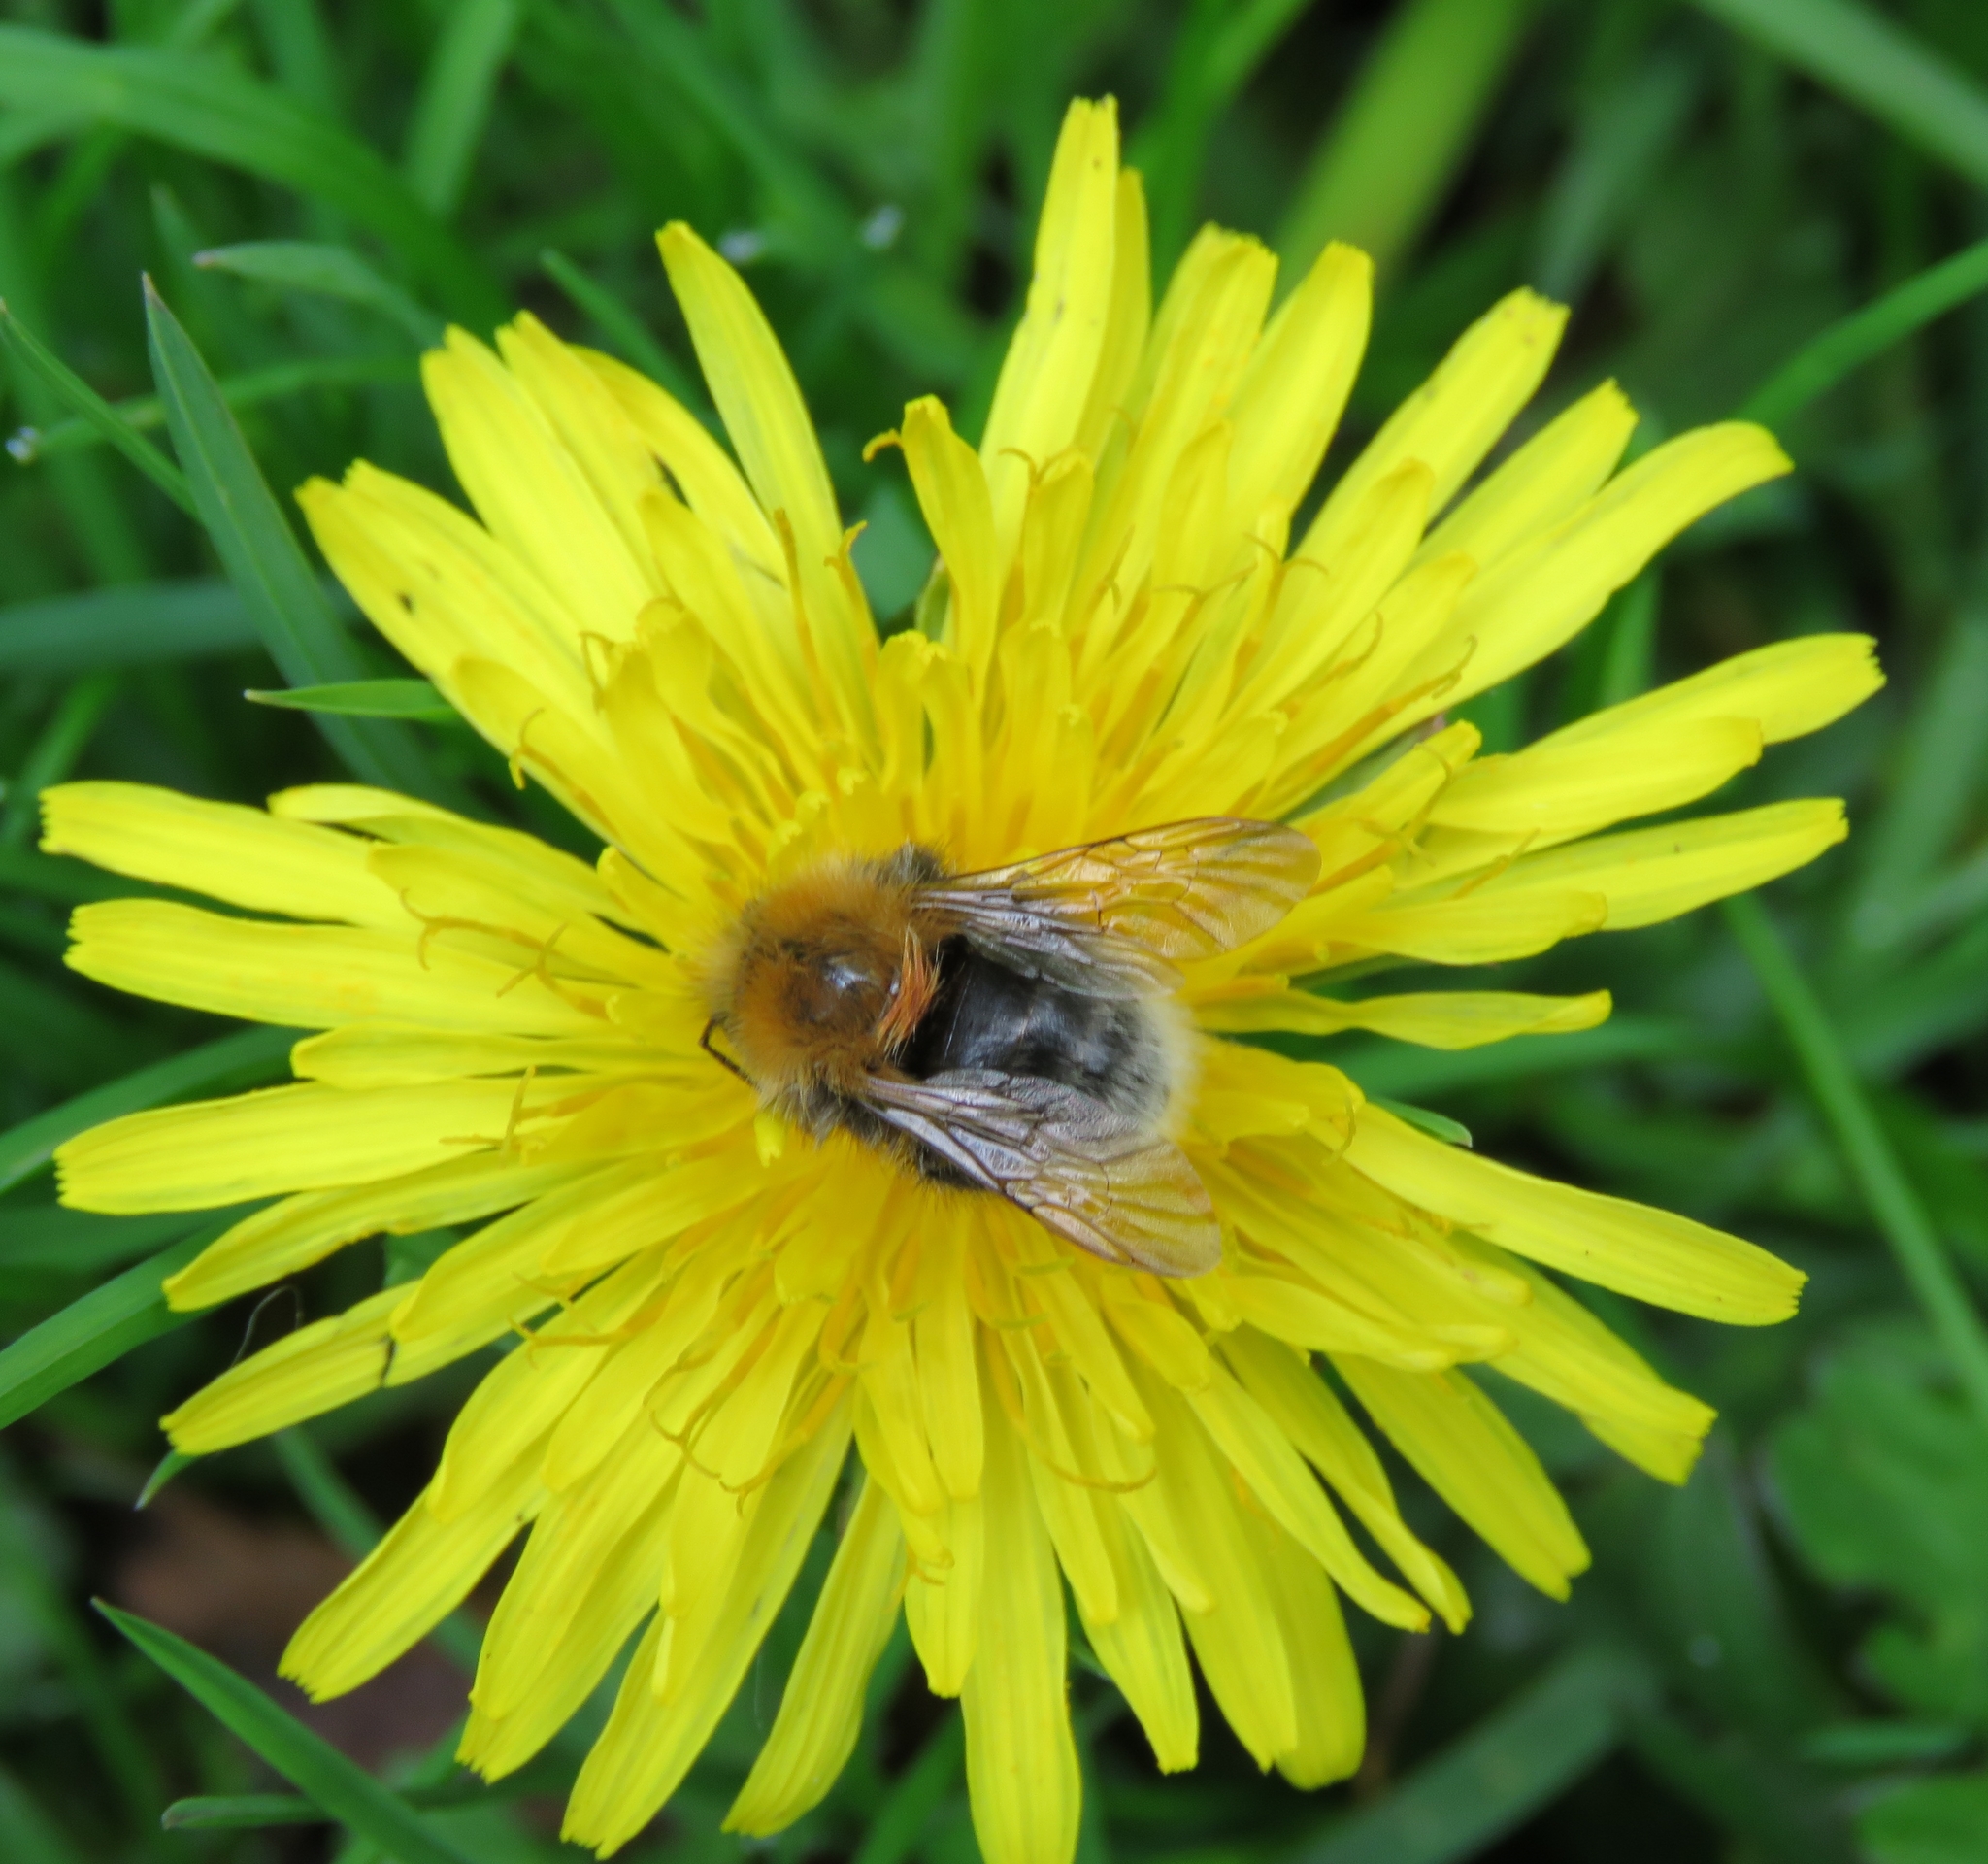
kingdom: Animalia
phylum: Arthropoda
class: Insecta
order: Hymenoptera
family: Apidae
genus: Bombus
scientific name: Bombus hypnorum
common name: New garden bumblebee
